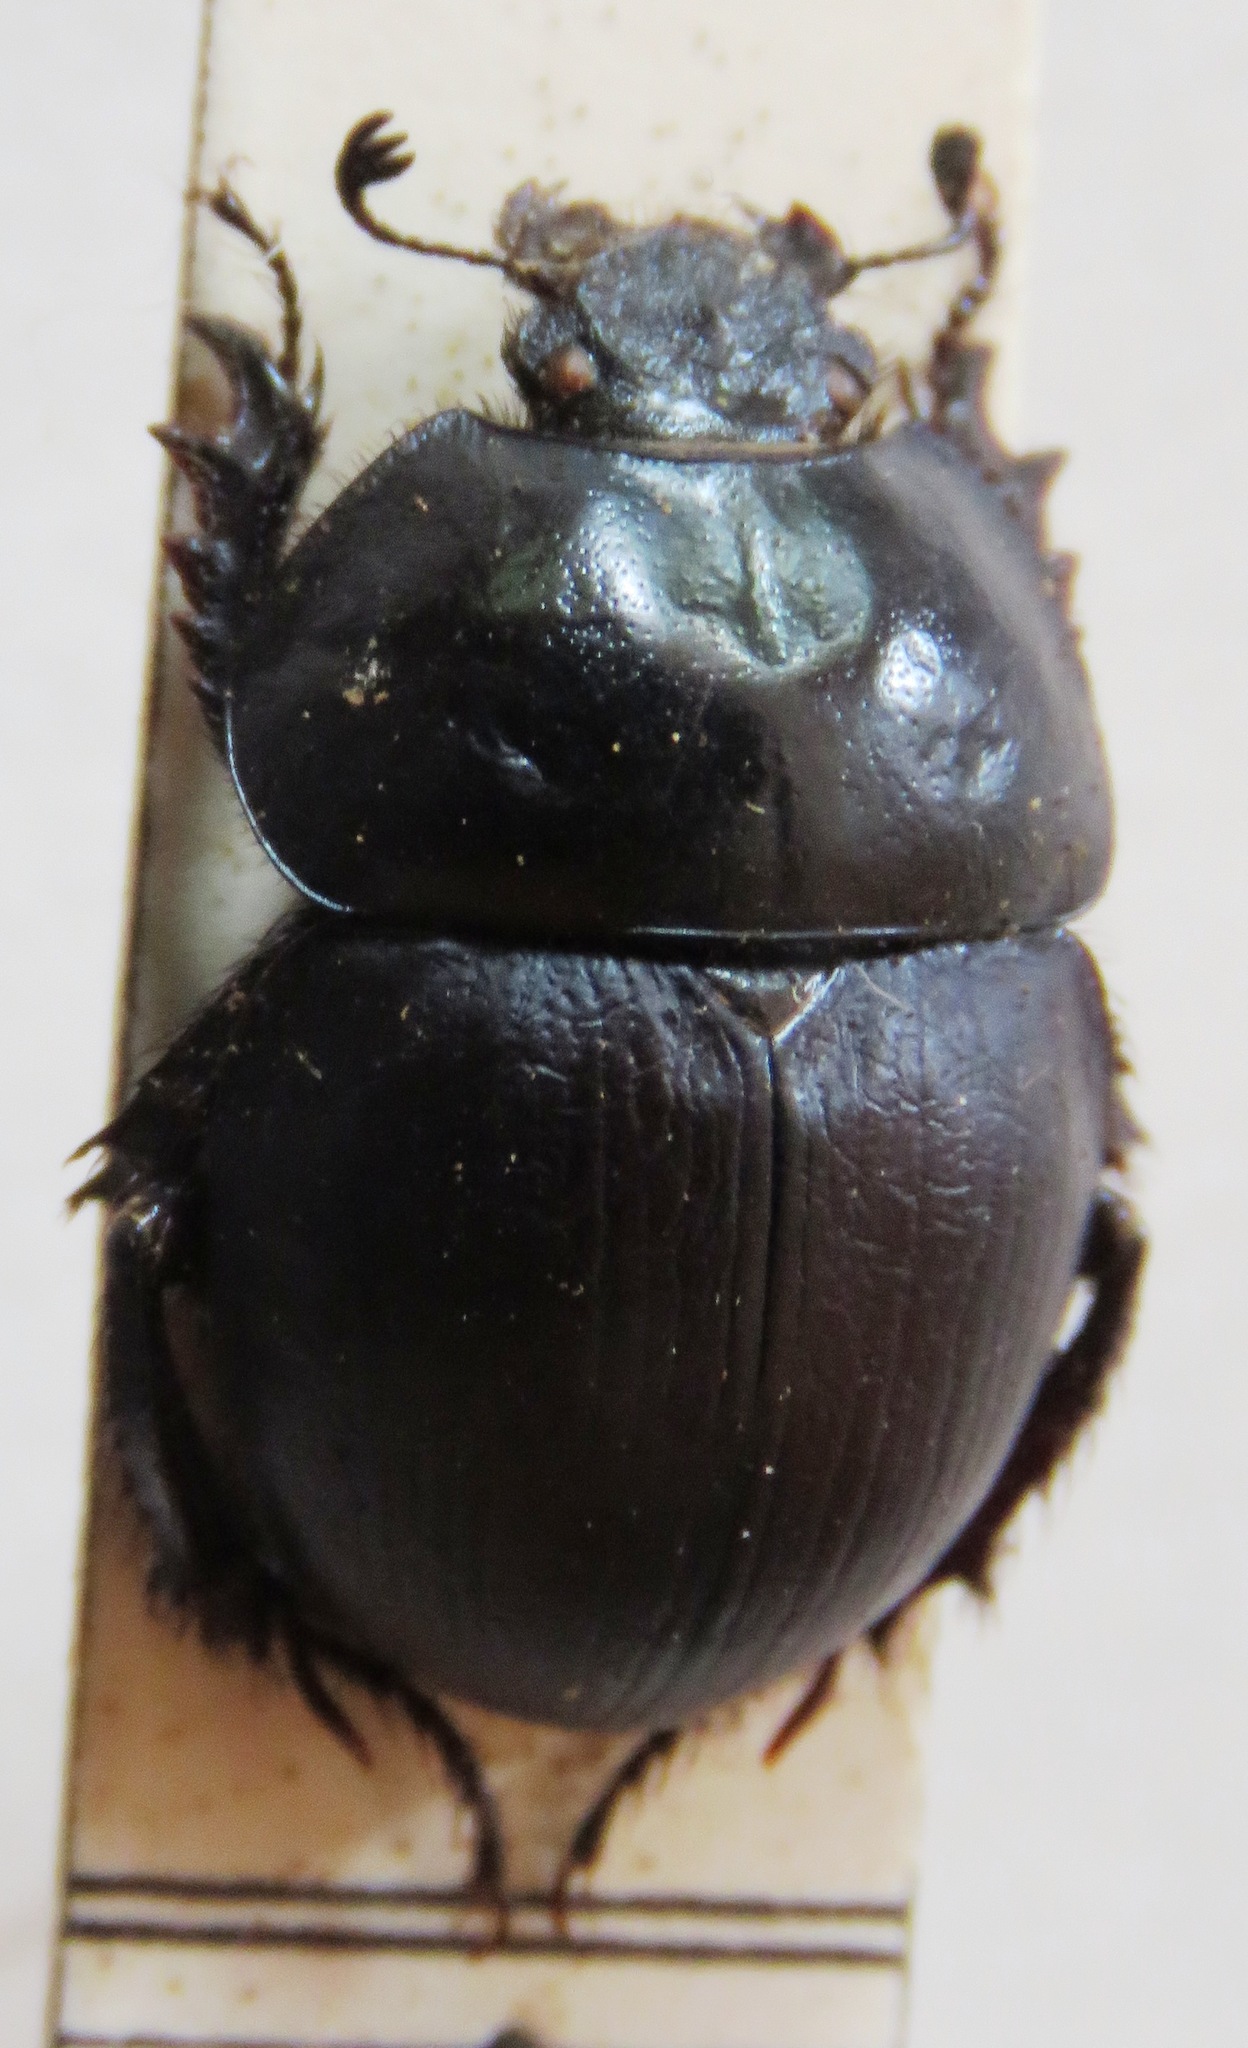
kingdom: Animalia
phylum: Arthropoda
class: Insecta
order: Coleoptera
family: Geotrupidae
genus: Jekelius
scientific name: Jekelius sardous
